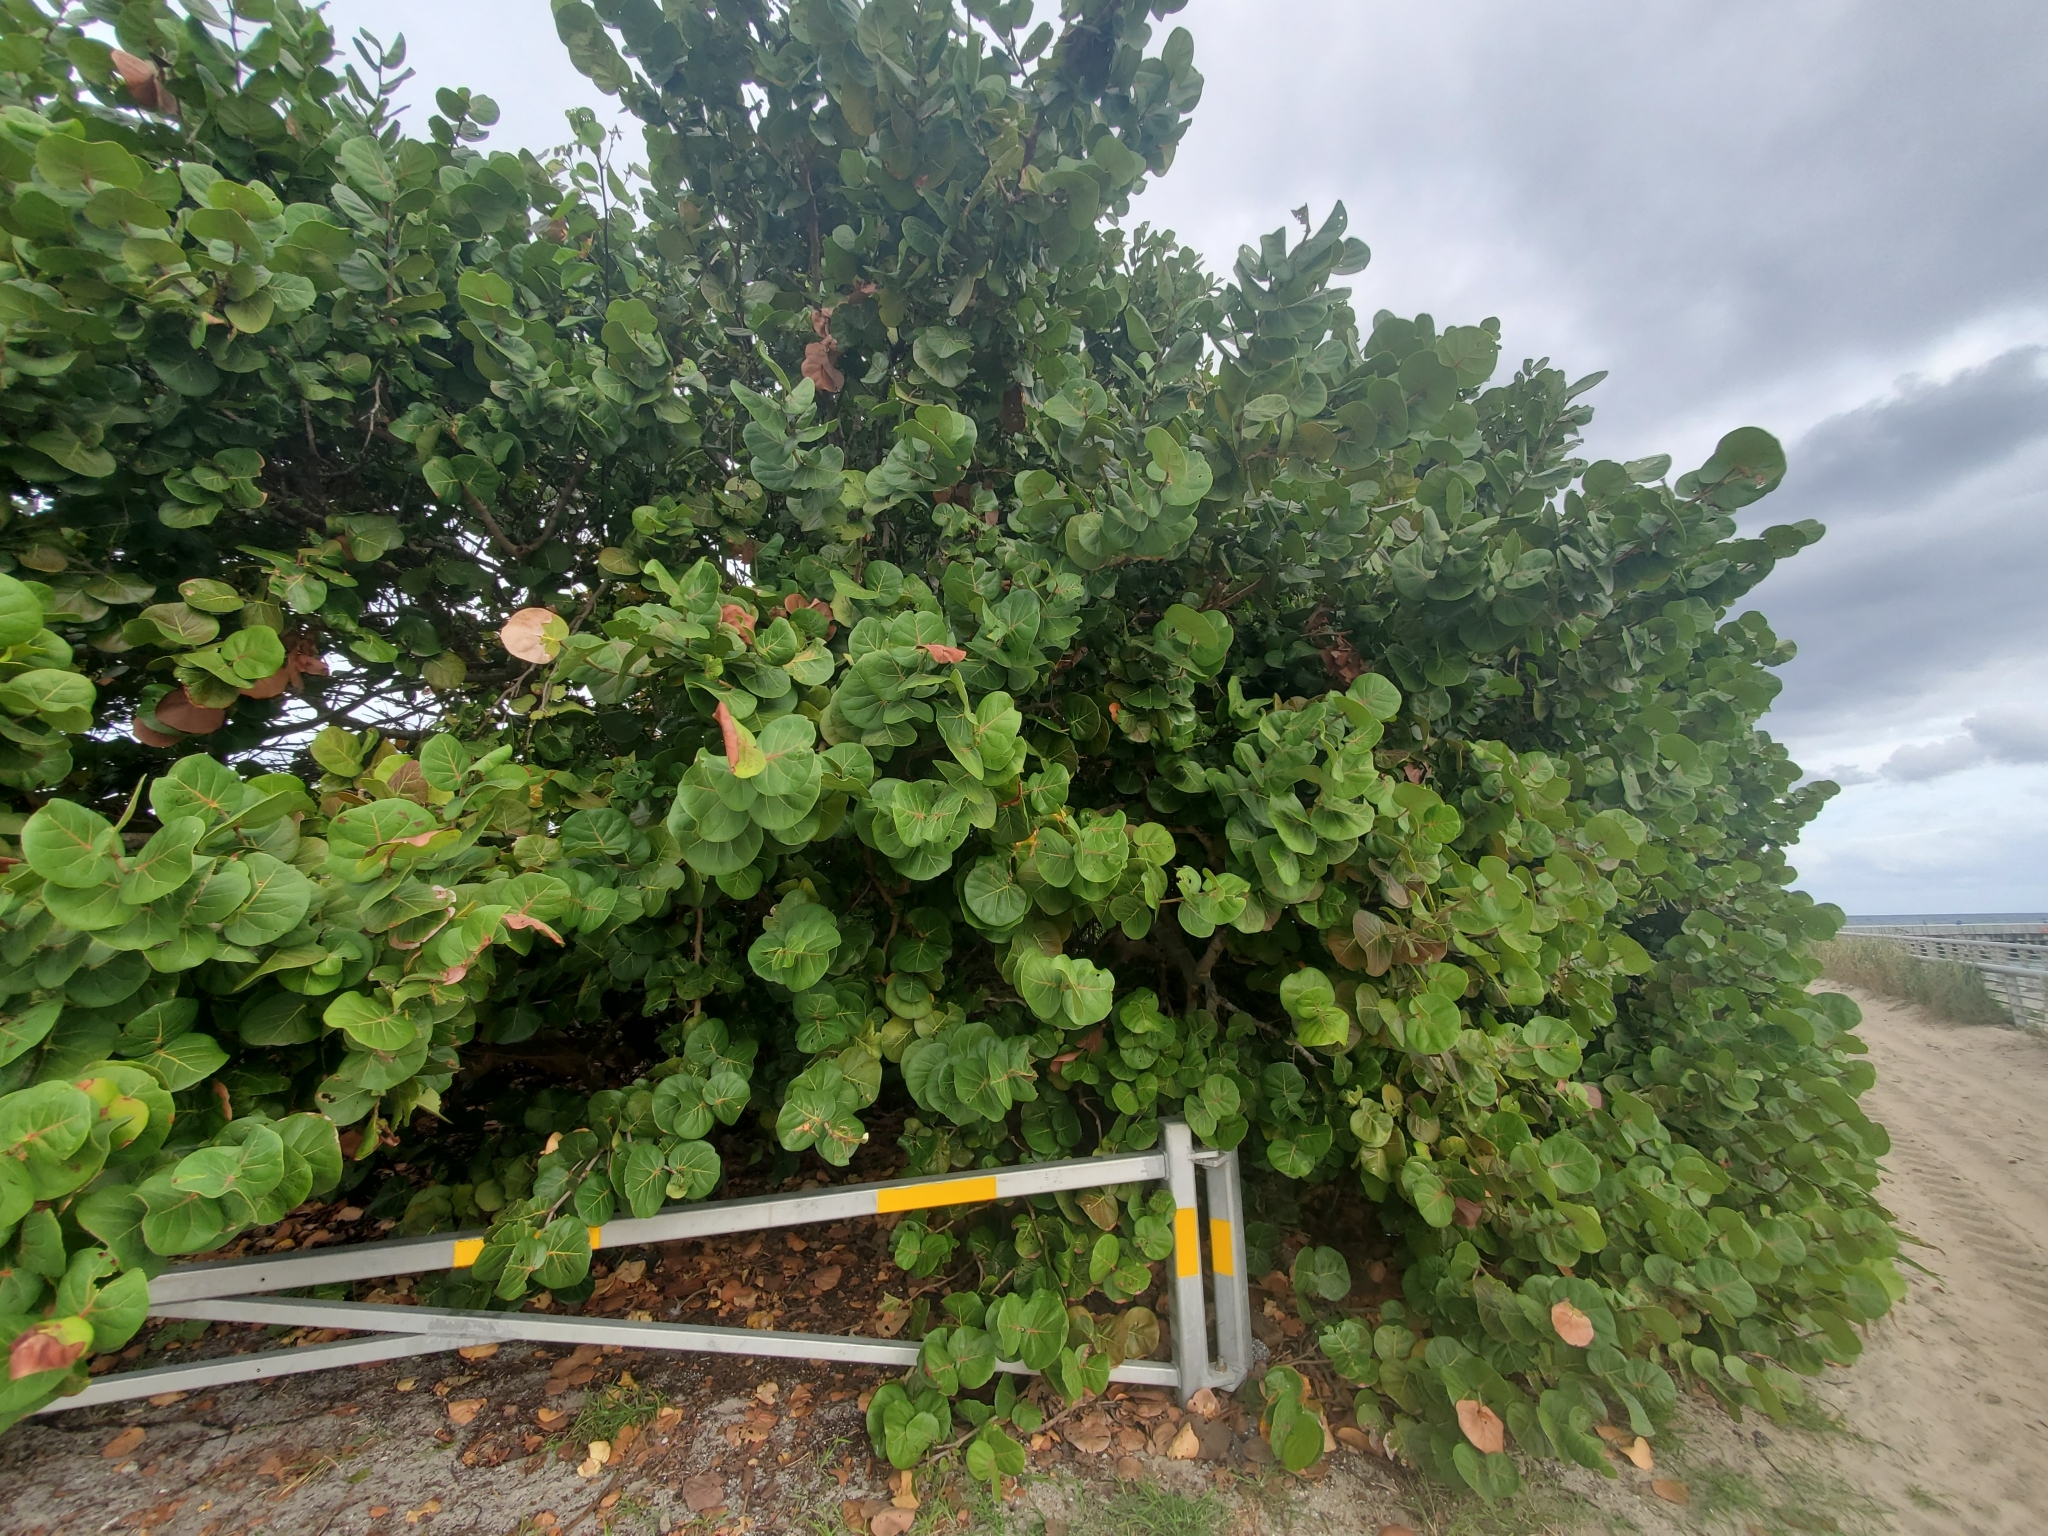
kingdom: Plantae
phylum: Tracheophyta
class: Magnoliopsida
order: Caryophyllales
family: Polygonaceae
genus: Coccoloba
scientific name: Coccoloba uvifera
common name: Seagrape
